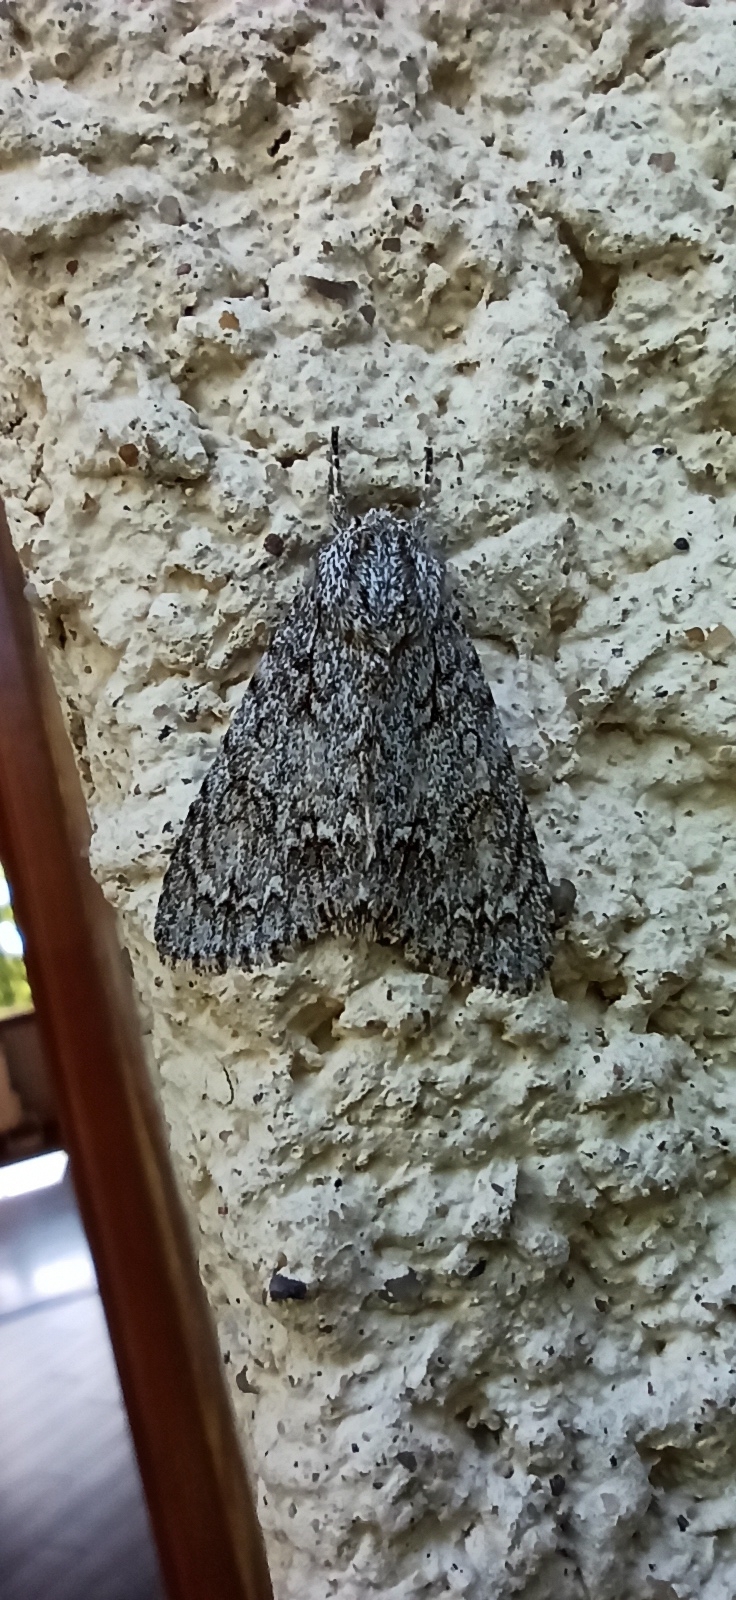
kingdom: Animalia
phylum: Arthropoda
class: Insecta
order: Lepidoptera
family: Noctuidae
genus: Acronicta
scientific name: Acronicta aceris
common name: Sycamore
